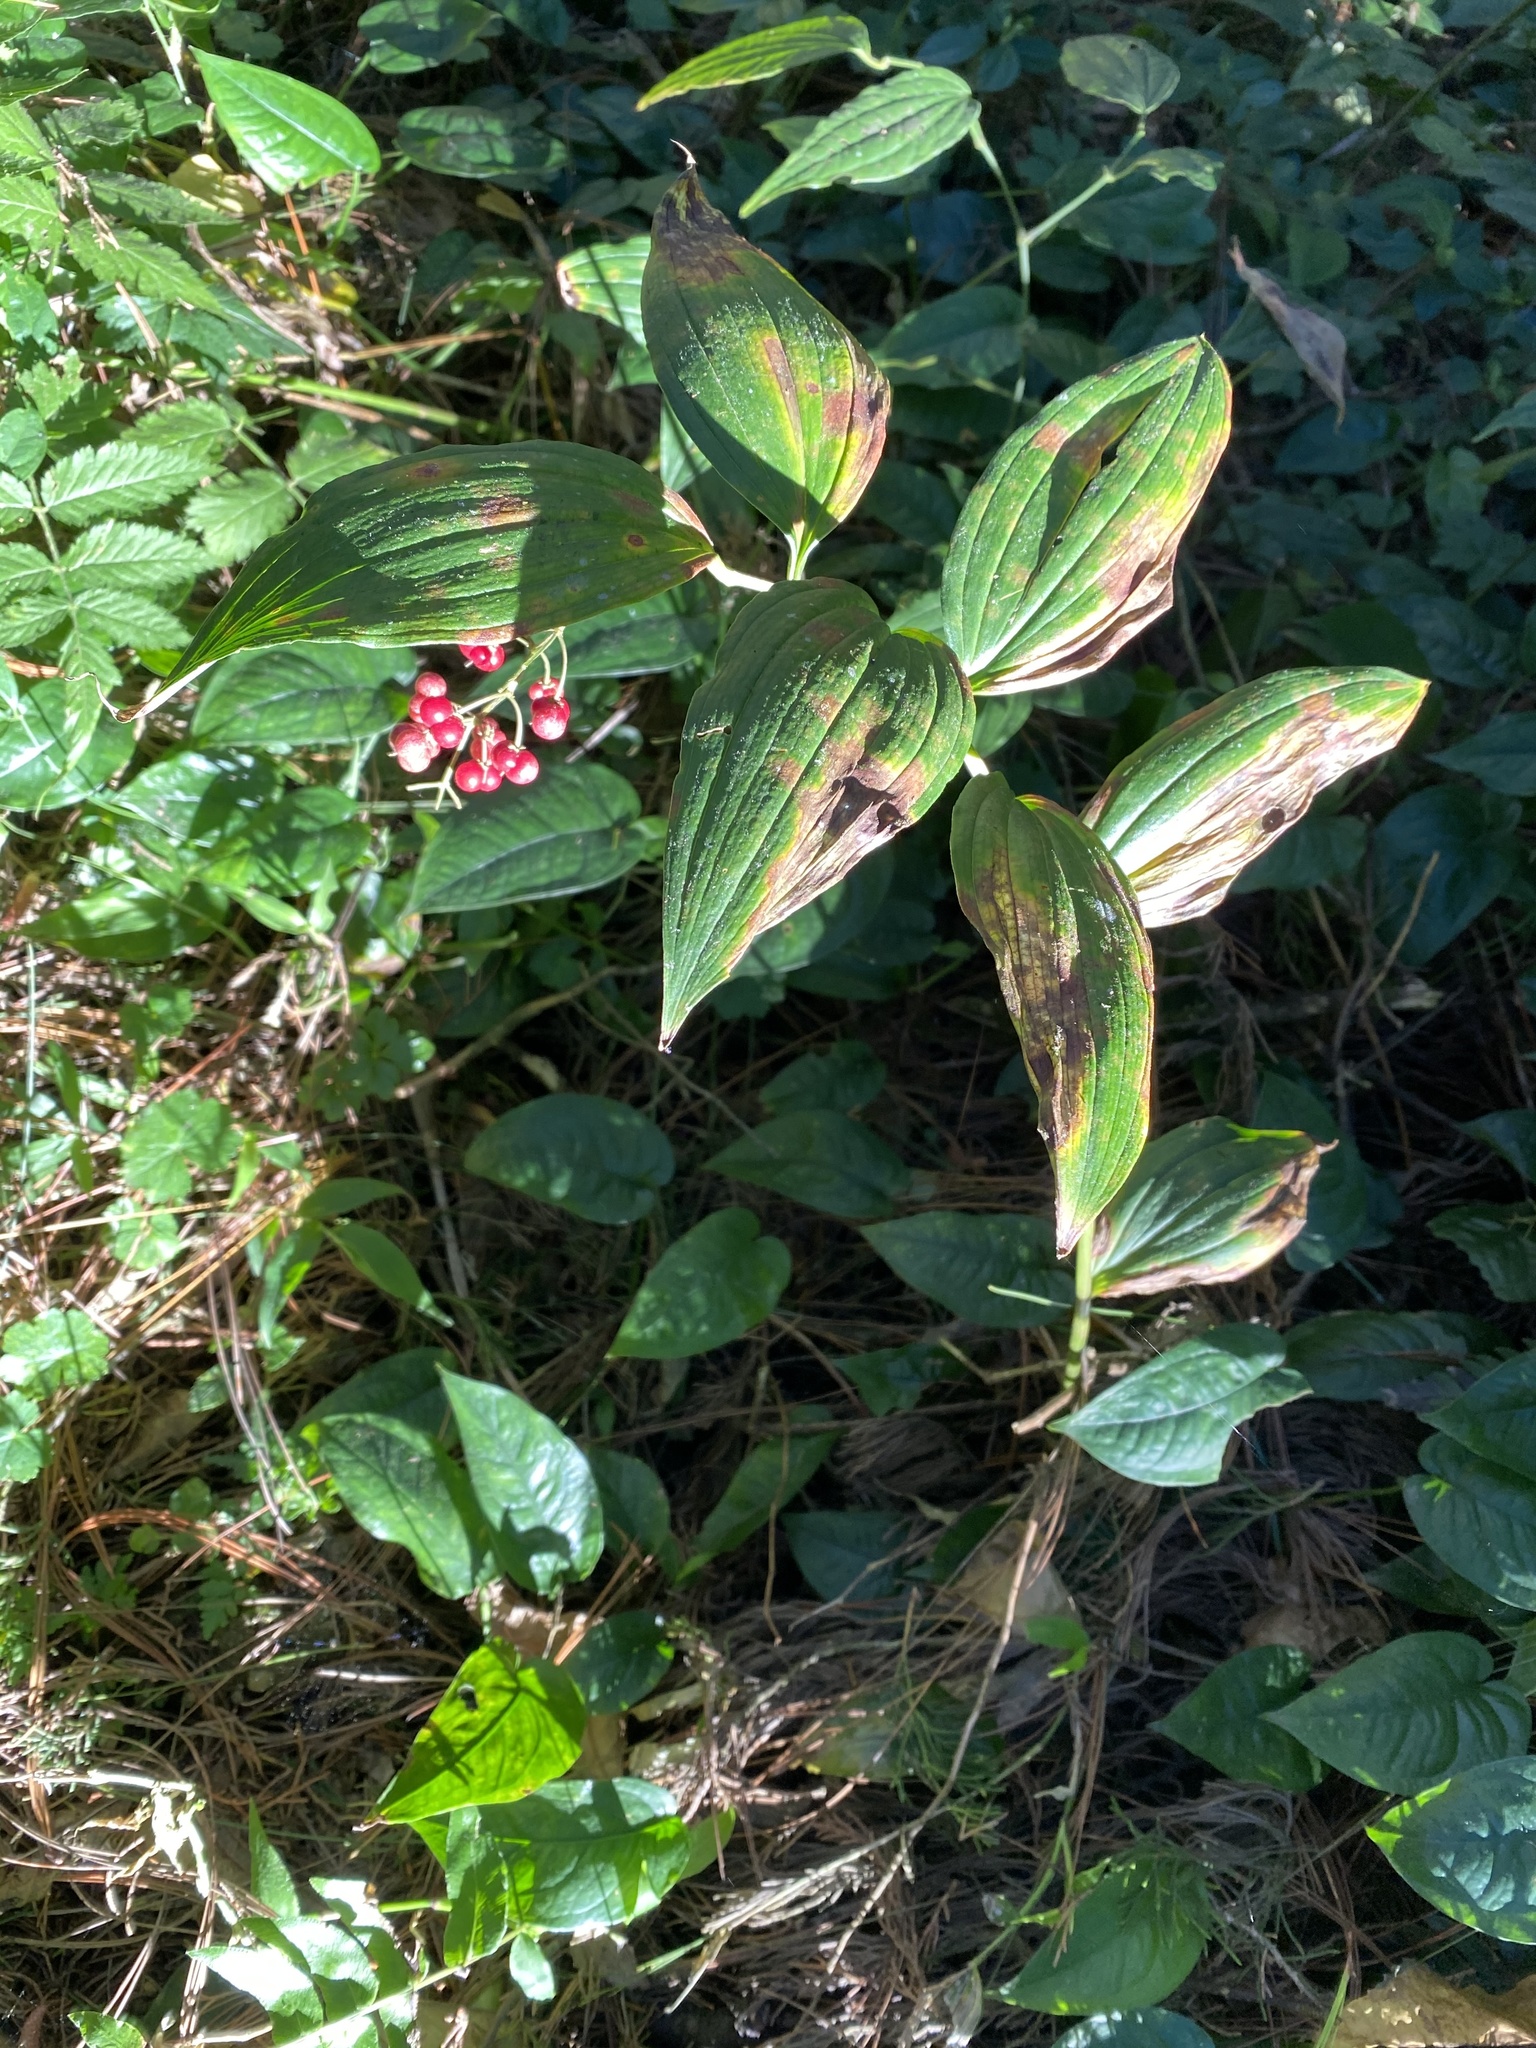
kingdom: Plantae
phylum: Tracheophyta
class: Liliopsida
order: Asparagales
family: Asparagaceae
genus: Maianthemum
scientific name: Maianthemum flexuosum
